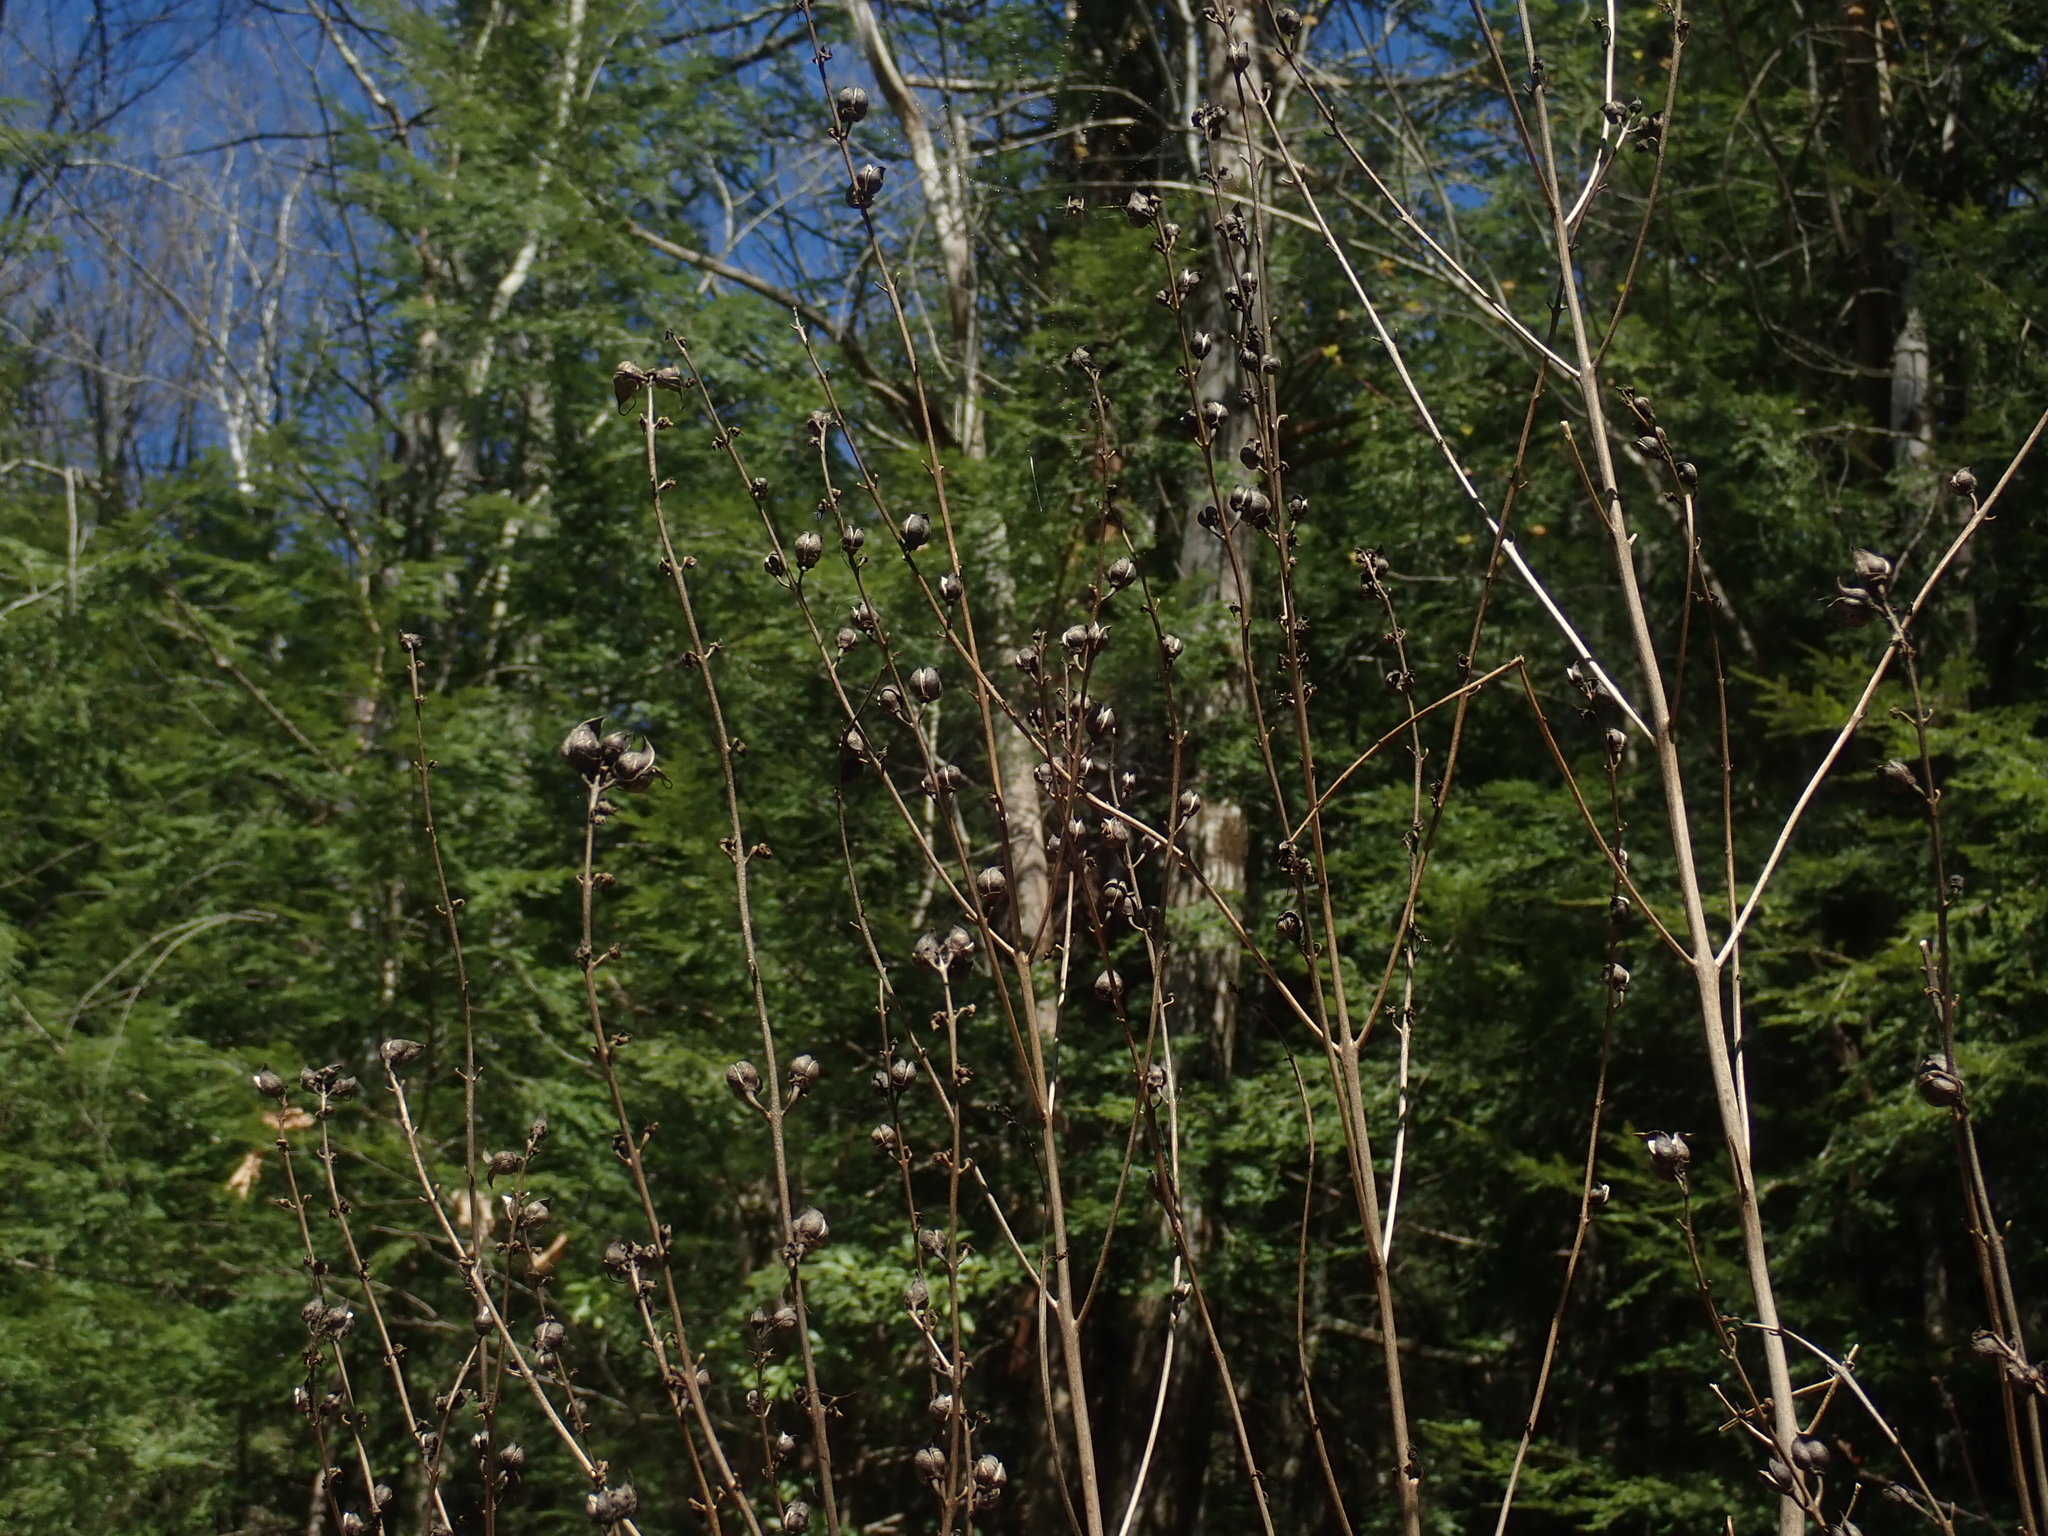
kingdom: Plantae
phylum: Tracheophyta
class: Magnoliopsida
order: Lamiales
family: Orobanchaceae
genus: Aureolaria
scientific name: Aureolaria flava
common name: Smooth false foxglove
